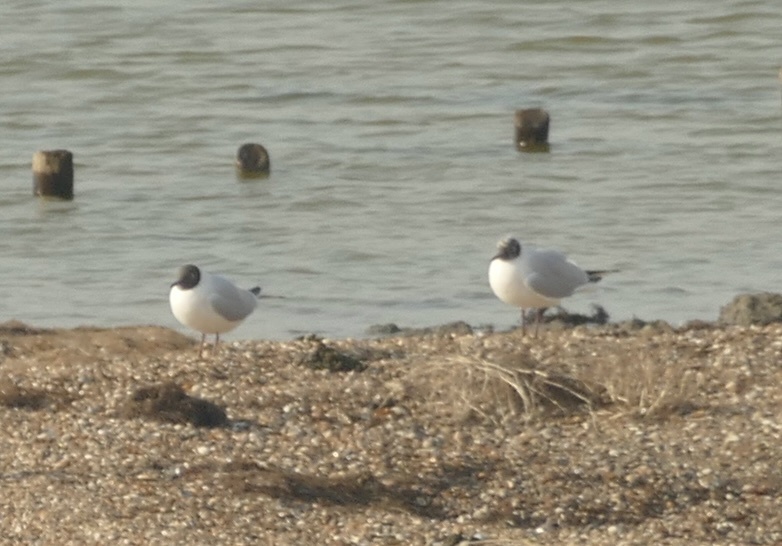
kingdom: Animalia
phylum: Chordata
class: Aves
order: Charadriiformes
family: Laridae
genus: Chroicocephalus
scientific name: Chroicocephalus ridibundus
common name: Black-headed gull
